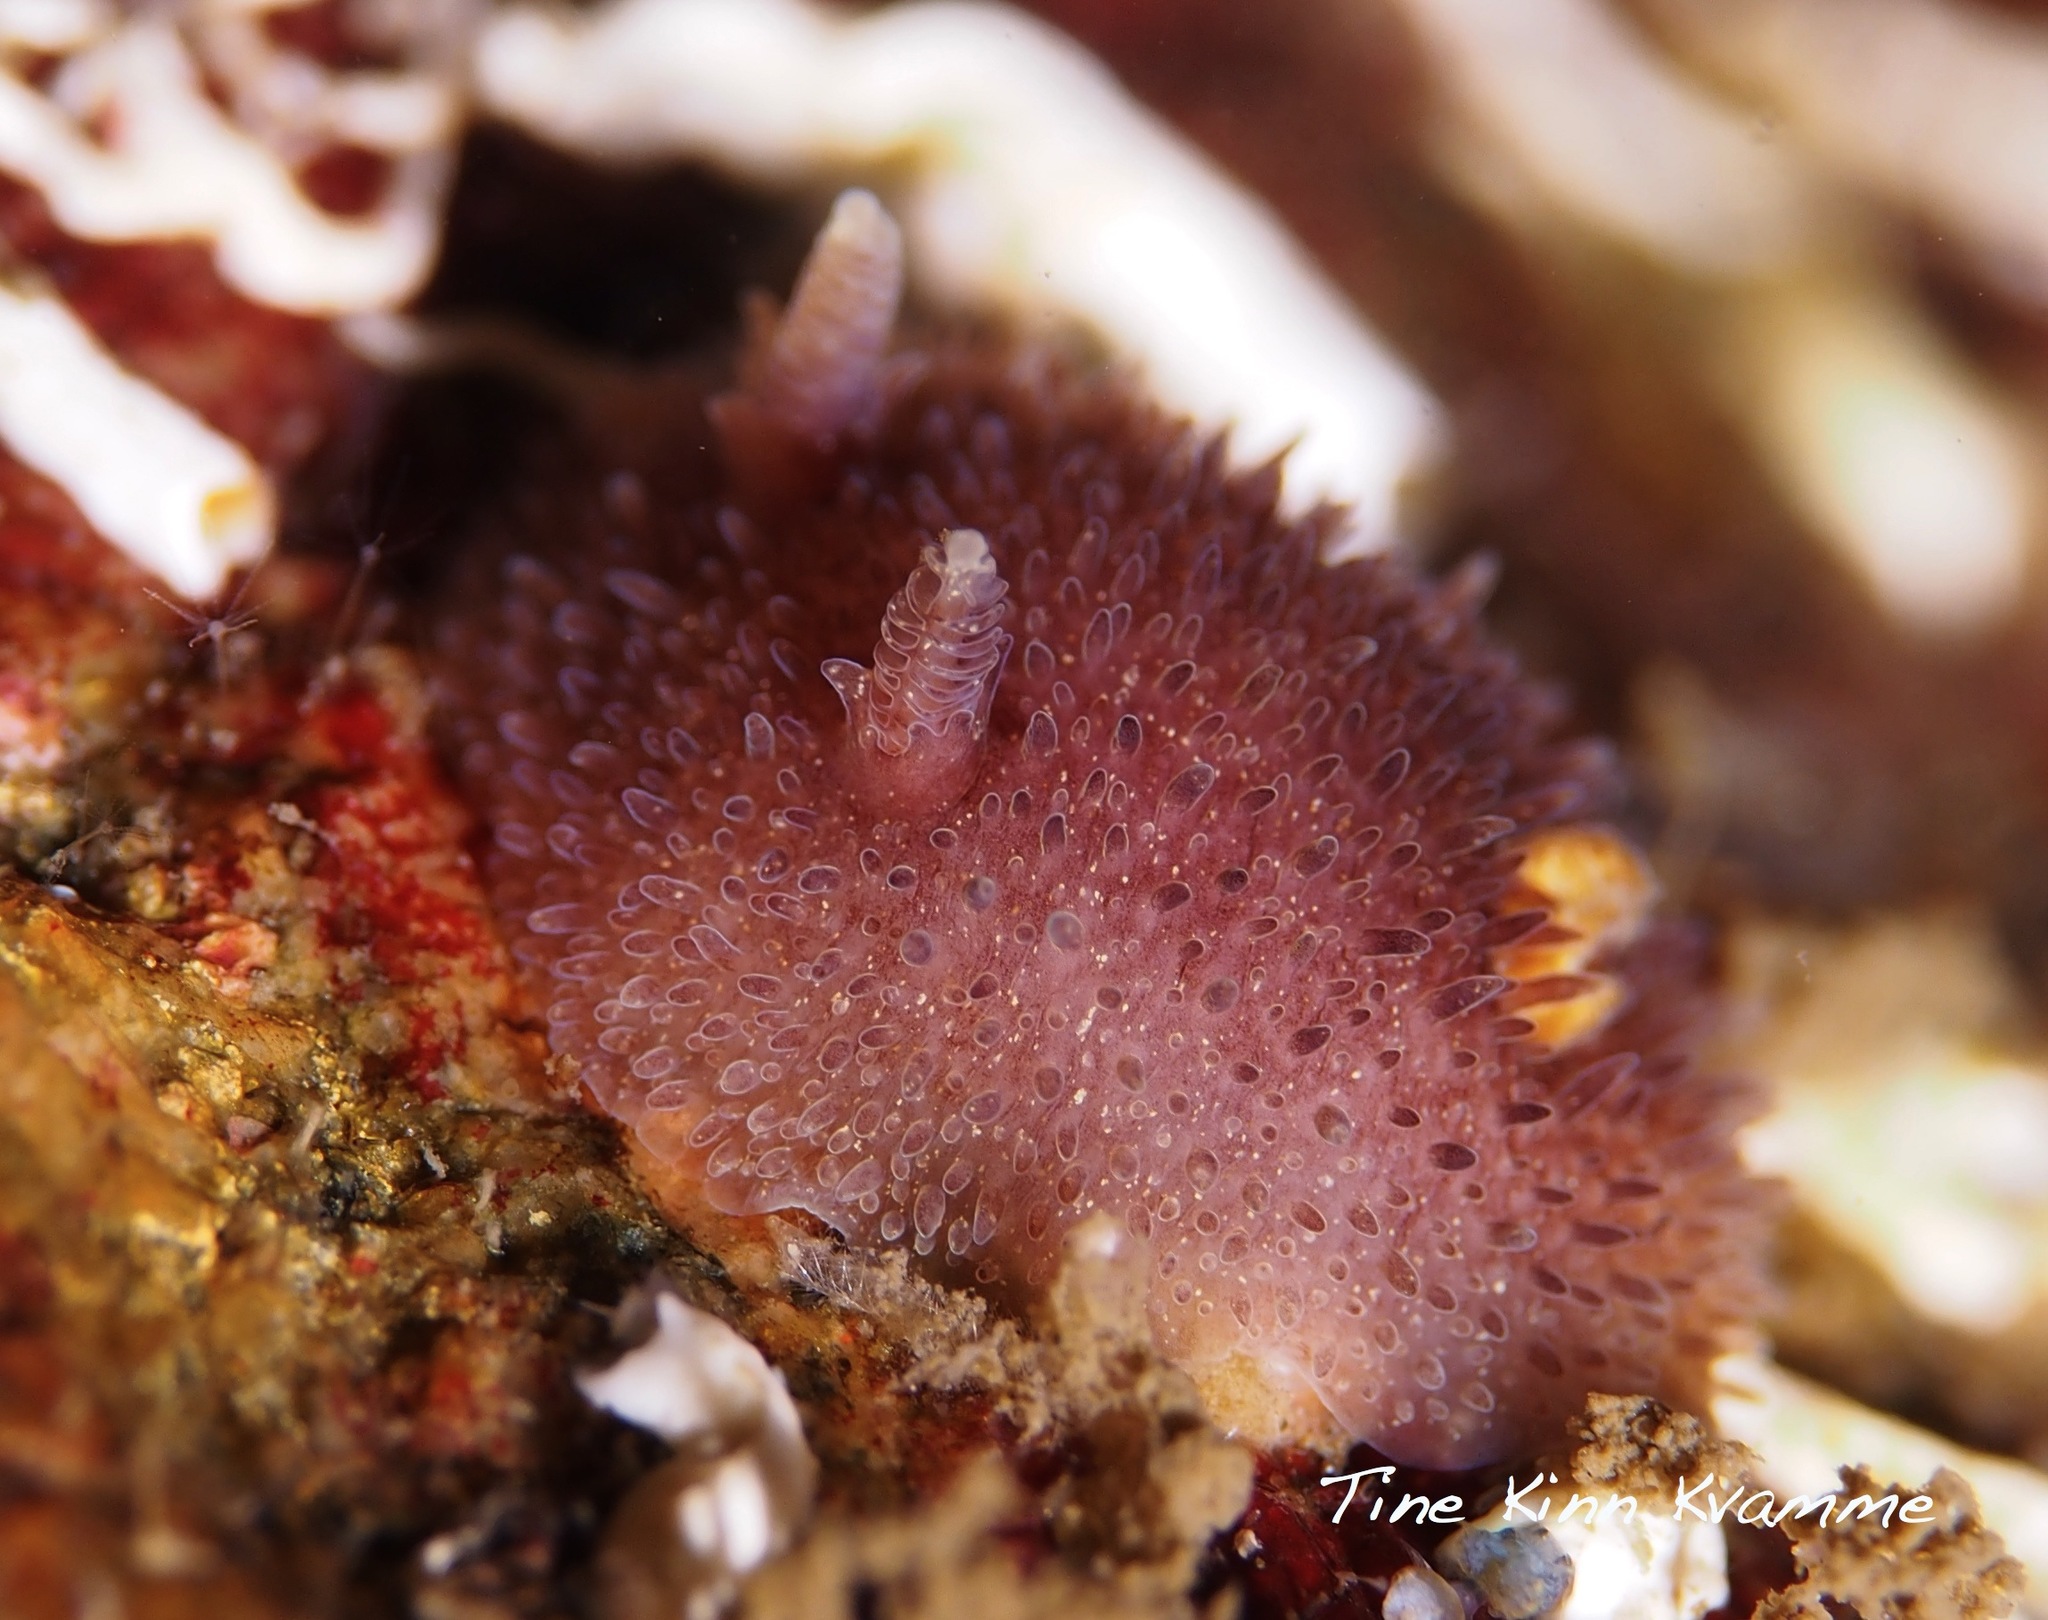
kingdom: Animalia
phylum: Mollusca
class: Gastropoda
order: Nudibranchia
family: Onchidorididae
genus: Acanthodoris
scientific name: Acanthodoris pilosa
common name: Hairy spiny doris
